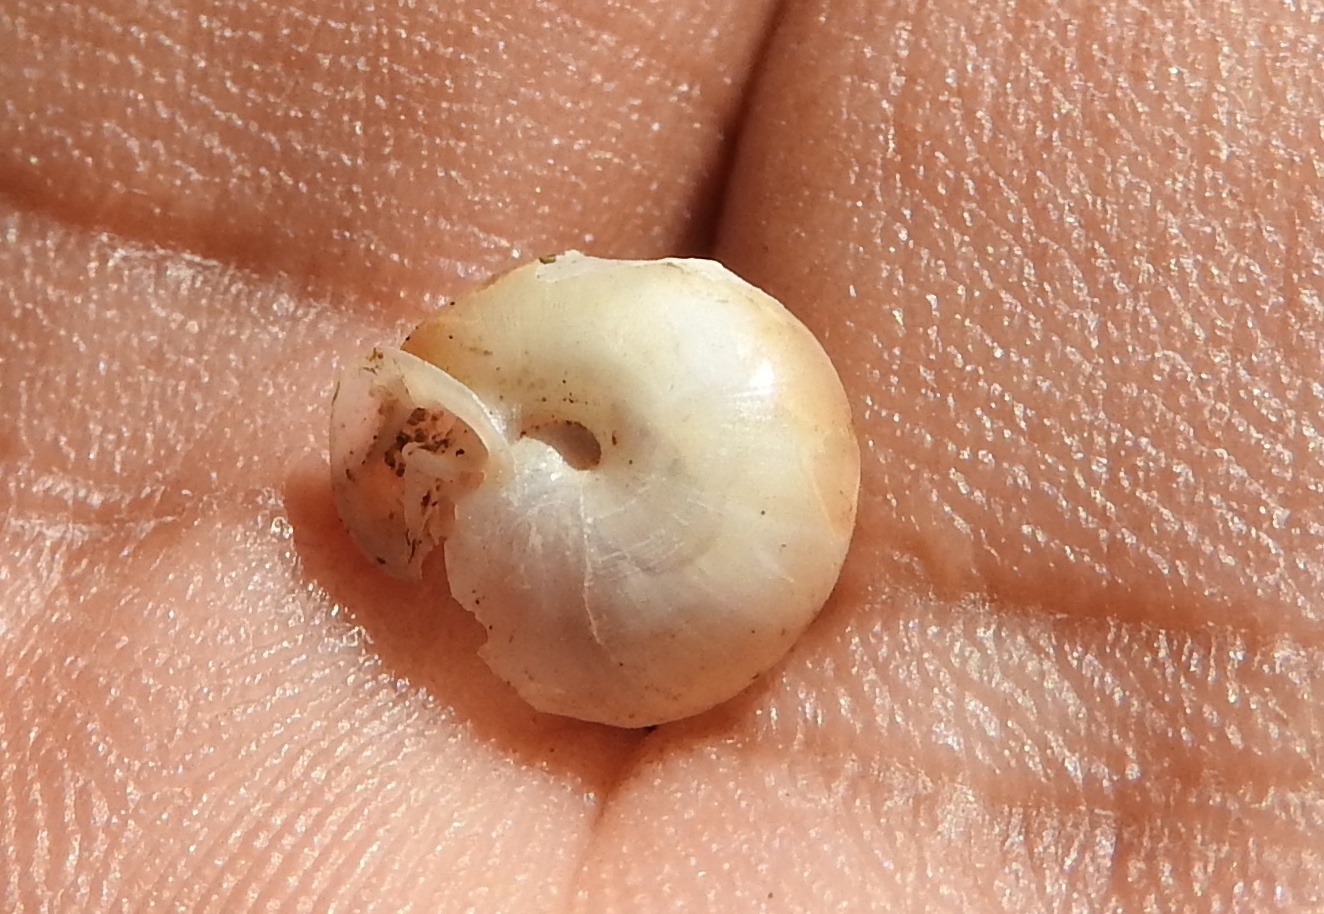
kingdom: Animalia
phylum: Mollusca
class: Gastropoda
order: Stylommatophora
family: Polygyridae
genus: Linisa
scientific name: Linisa
